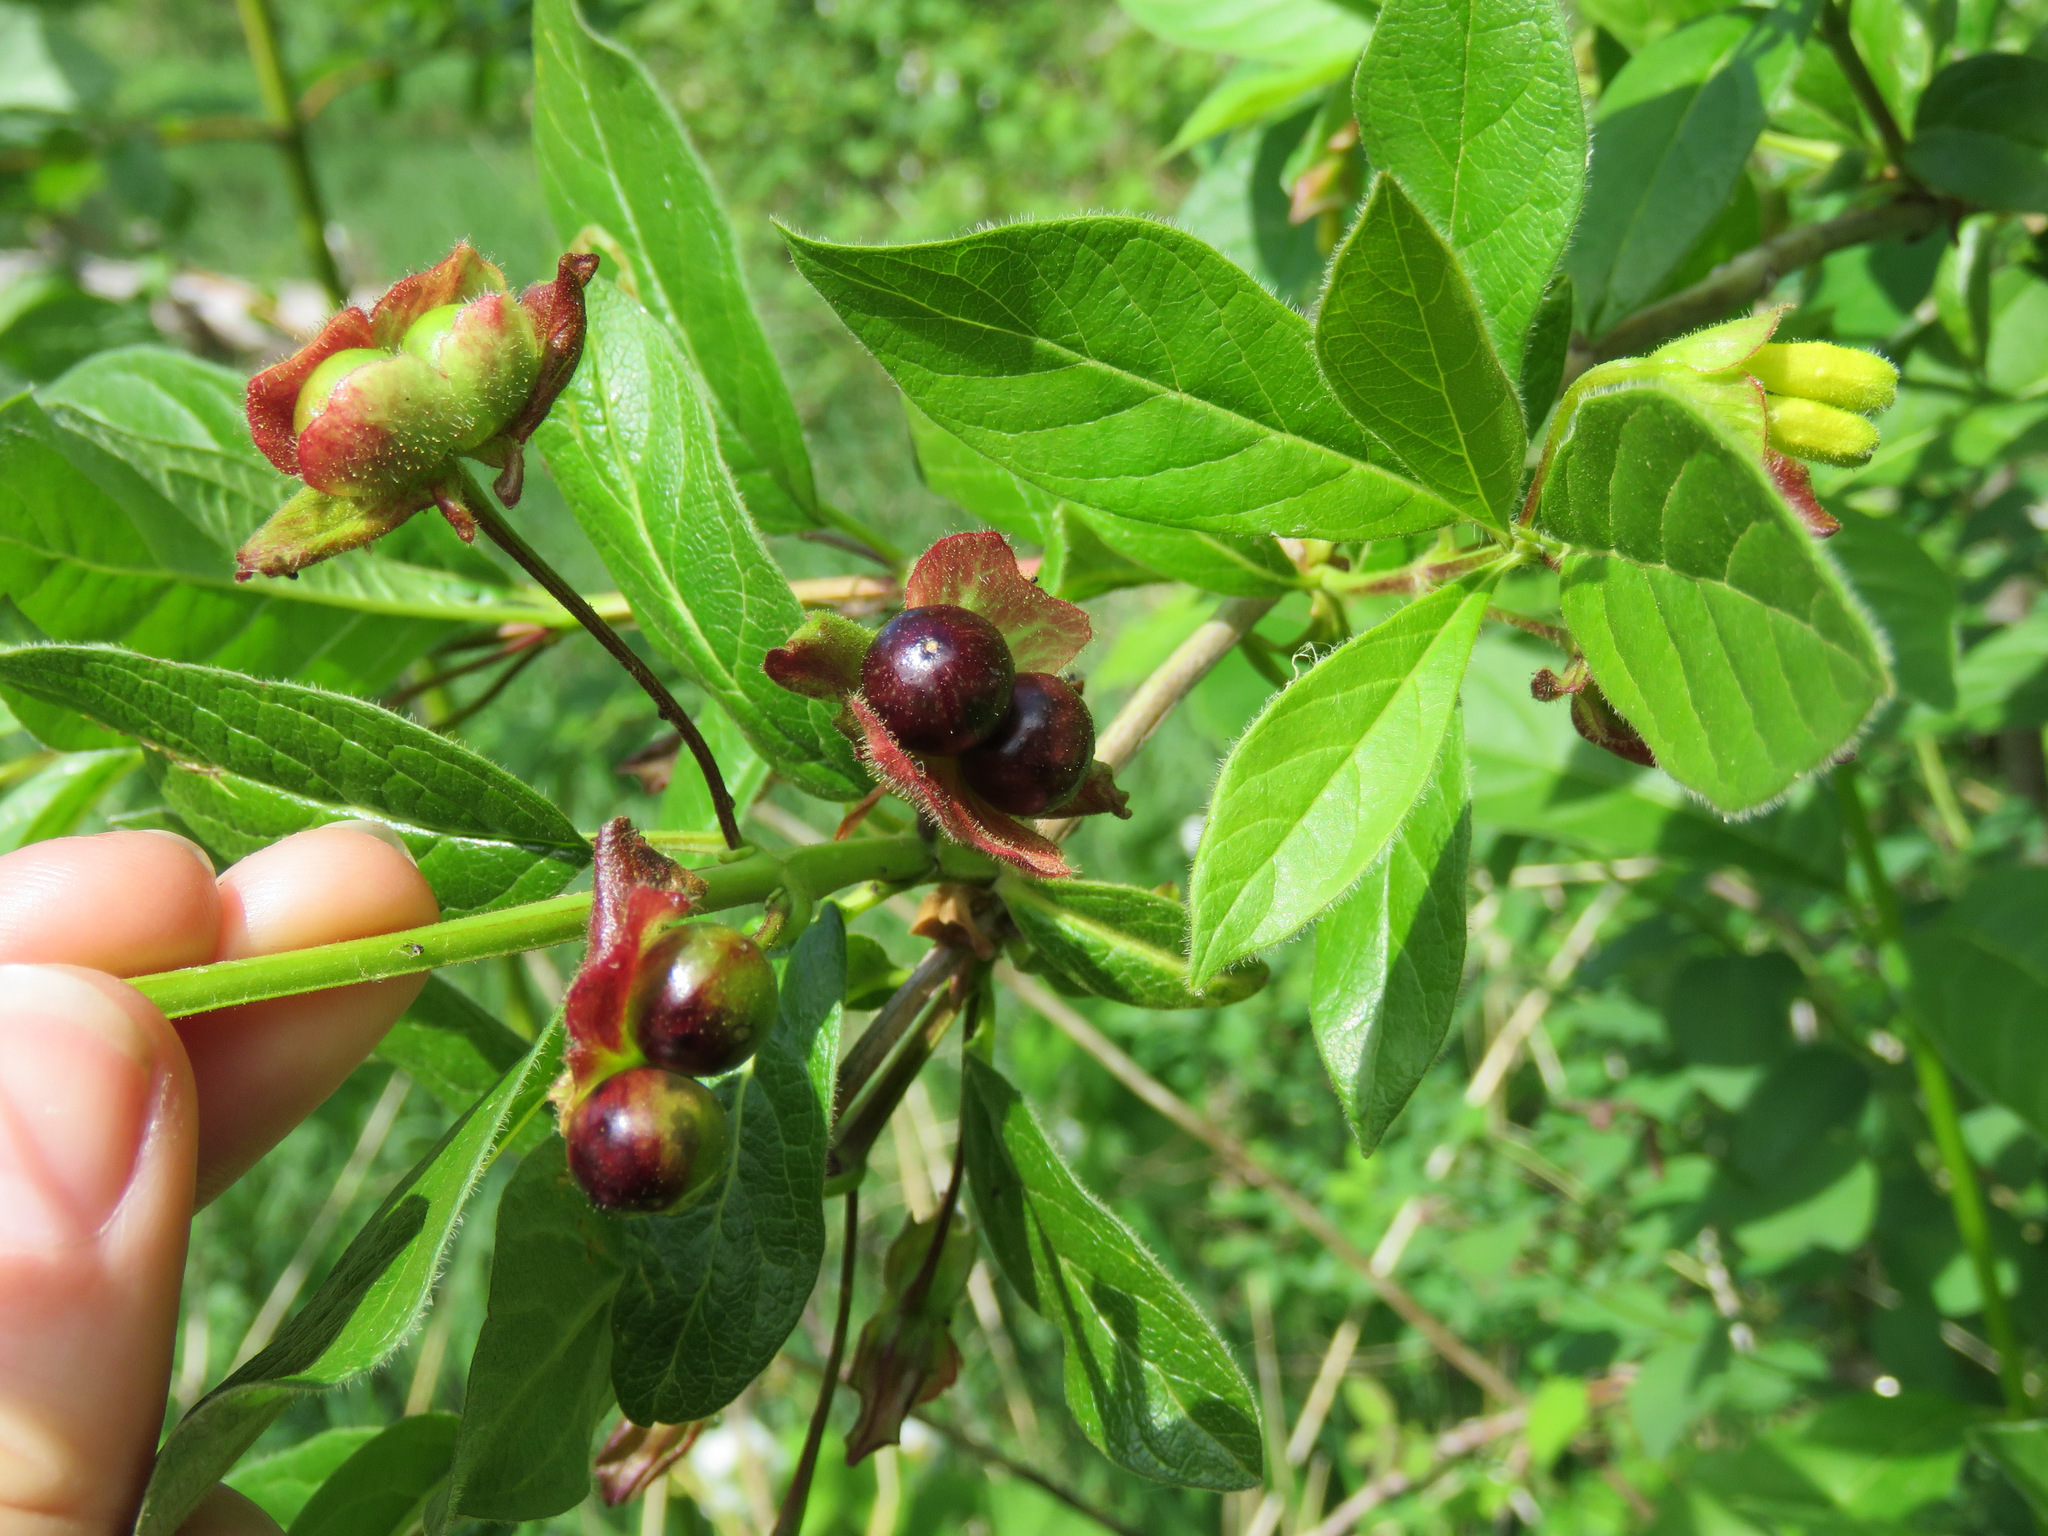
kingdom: Plantae
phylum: Tracheophyta
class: Magnoliopsida
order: Dipsacales
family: Caprifoliaceae
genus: Lonicera
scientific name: Lonicera involucrata
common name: Californian honeysuckle
